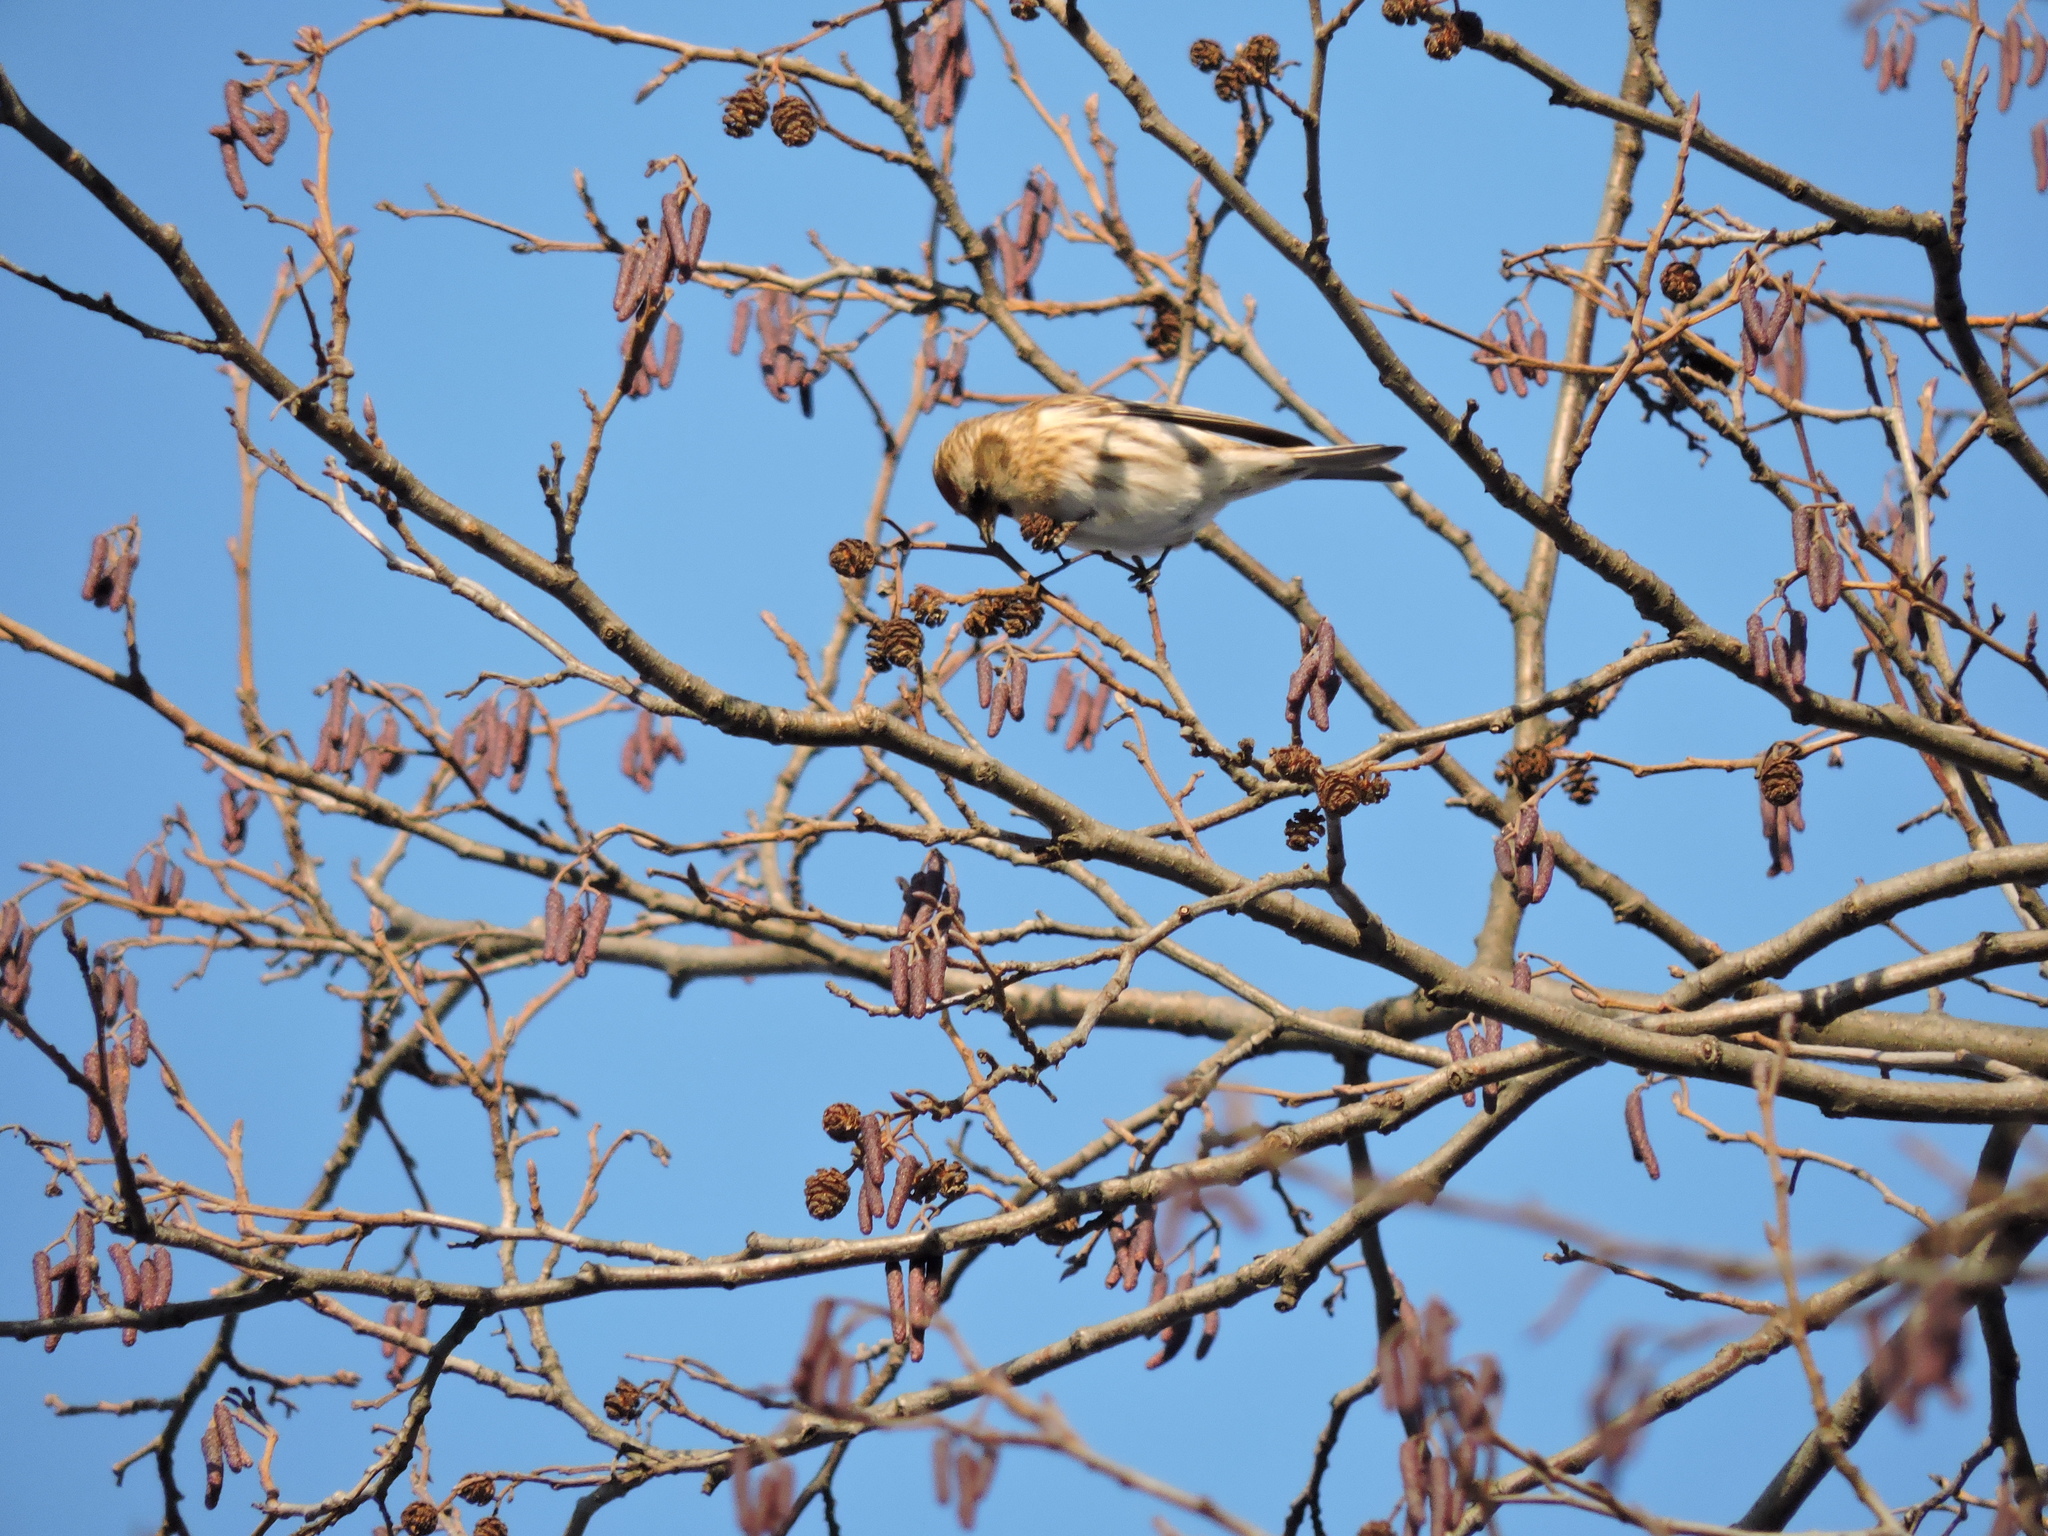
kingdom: Animalia
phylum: Chordata
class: Aves
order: Passeriformes
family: Fringillidae
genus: Acanthis
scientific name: Acanthis flammea
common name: Common redpoll
